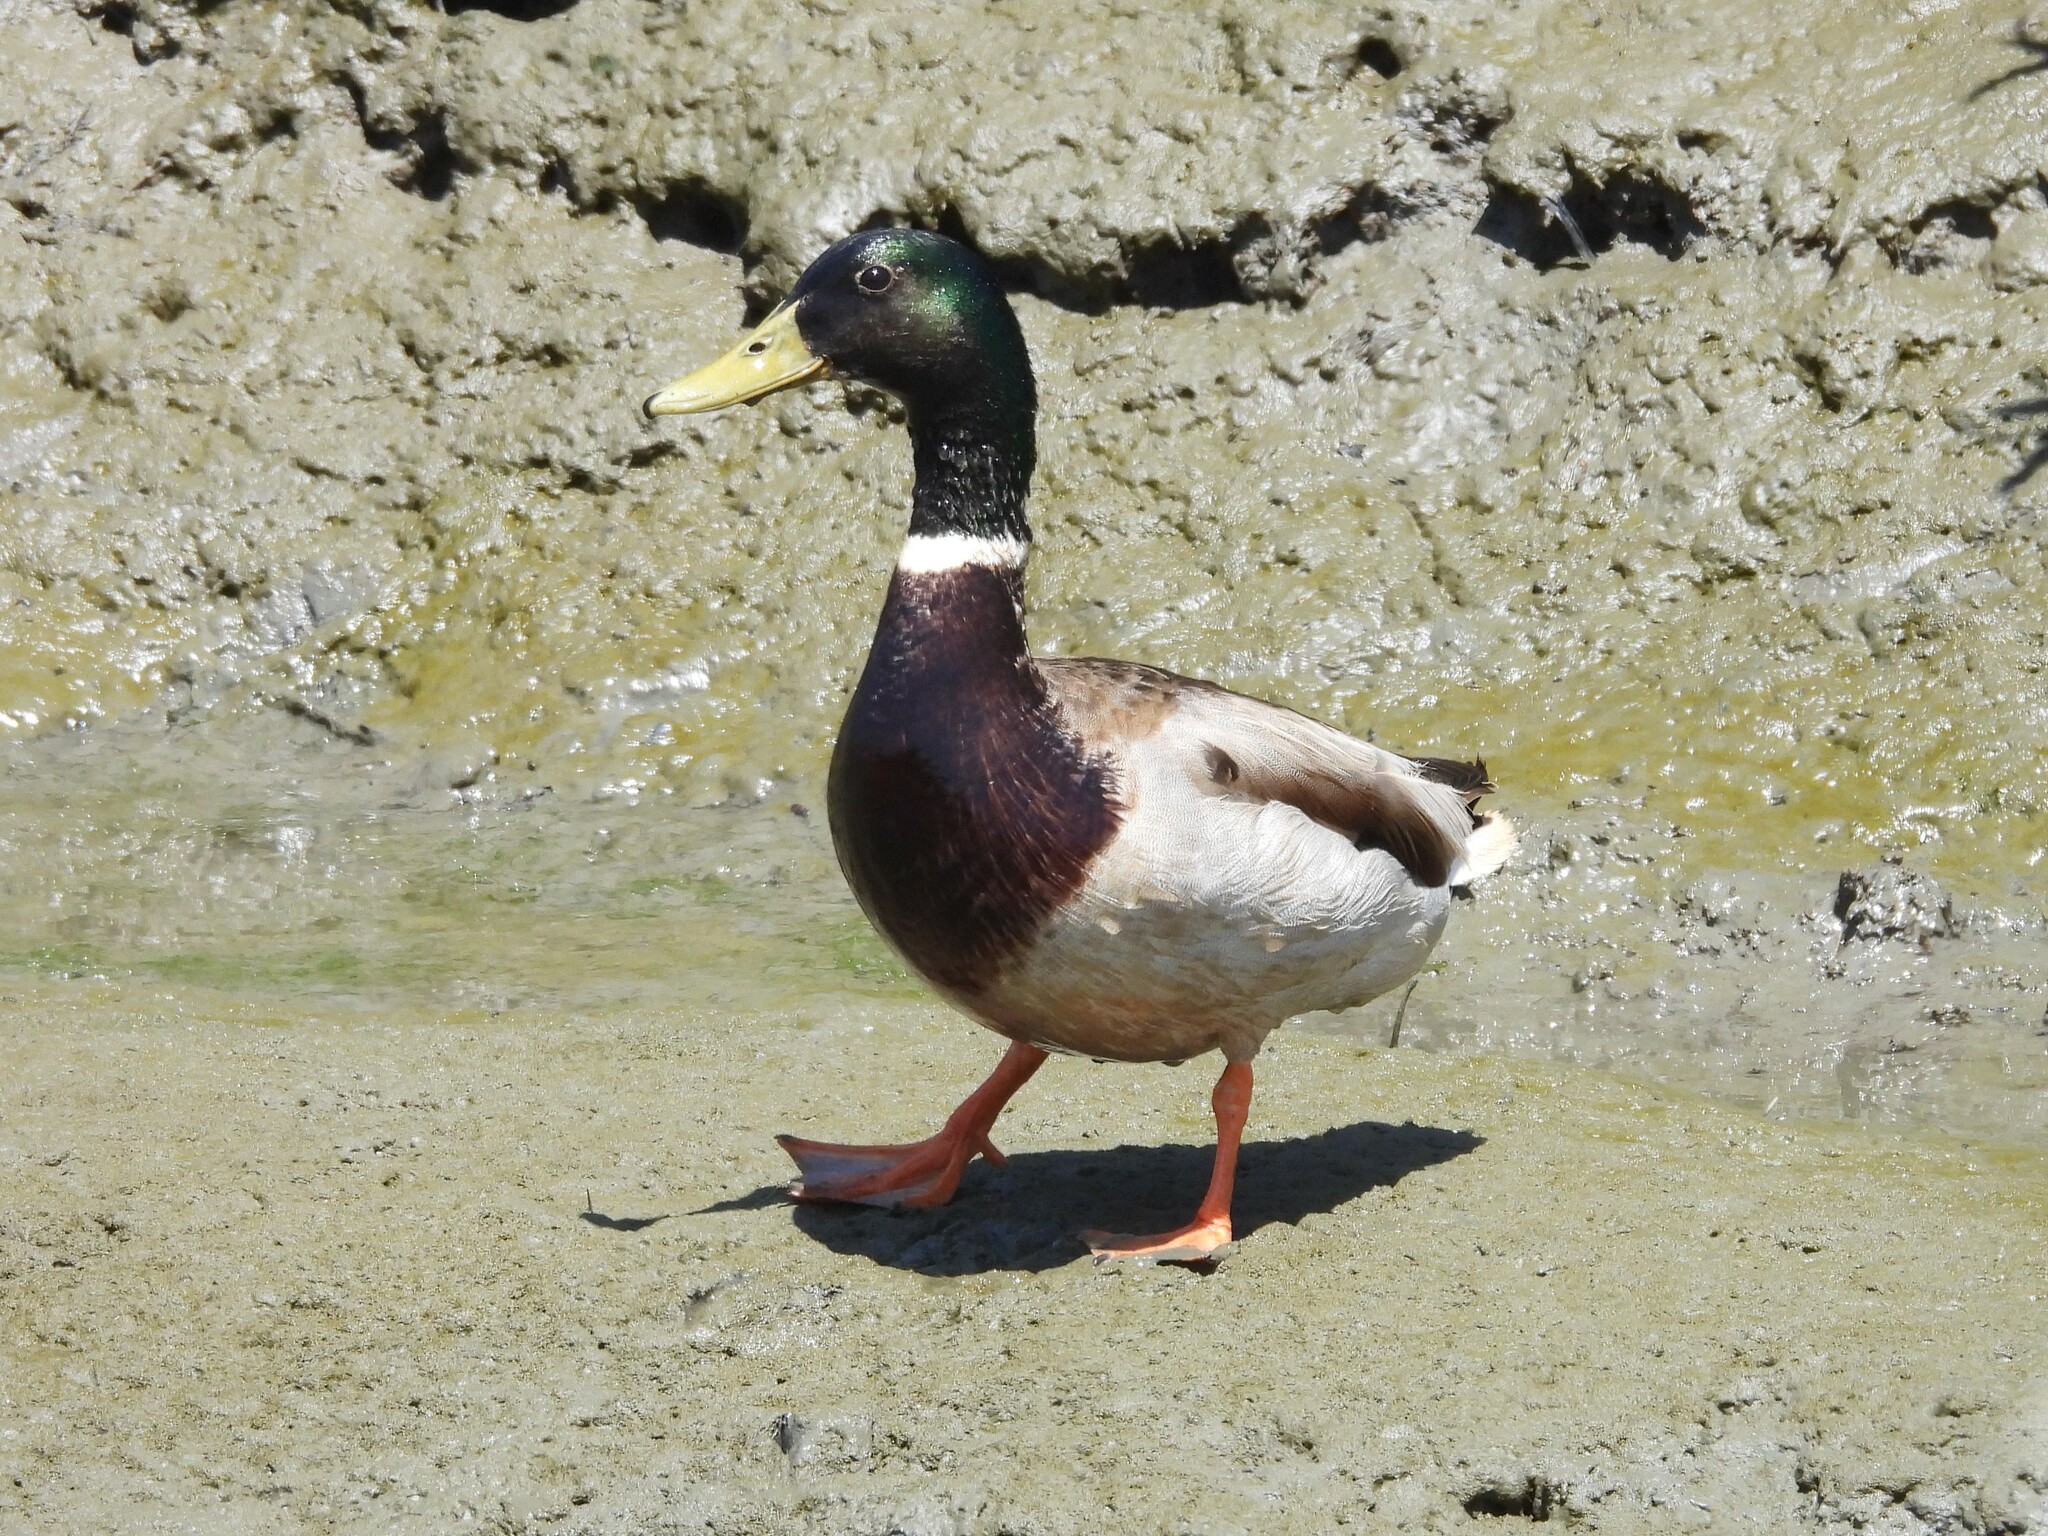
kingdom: Animalia
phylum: Chordata
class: Aves
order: Anseriformes
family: Anatidae
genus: Anas
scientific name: Anas platyrhynchos
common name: Mallard
